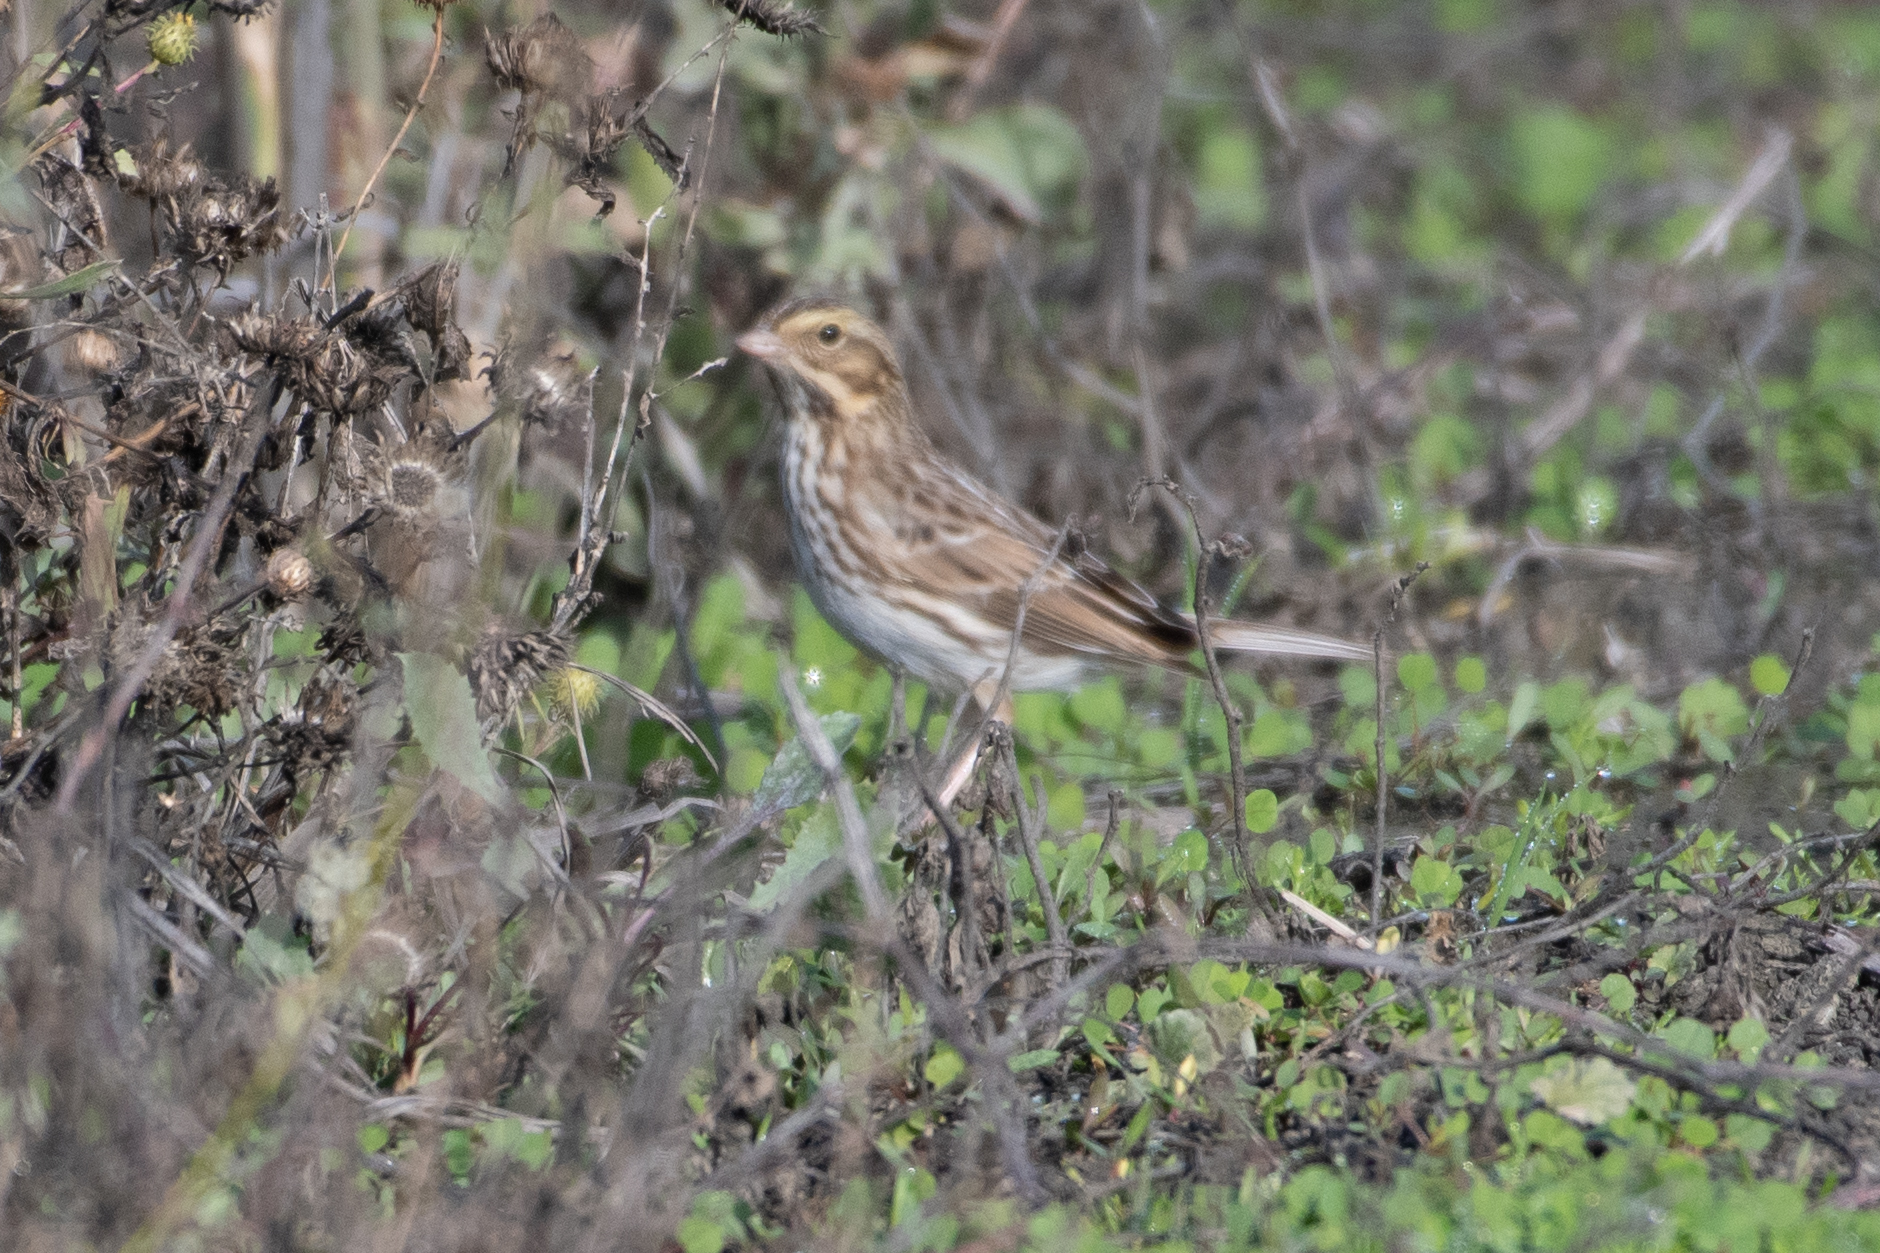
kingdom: Animalia
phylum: Chordata
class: Aves
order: Passeriformes
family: Passerellidae
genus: Passerculus
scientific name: Passerculus sandwichensis
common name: Savannah sparrow
